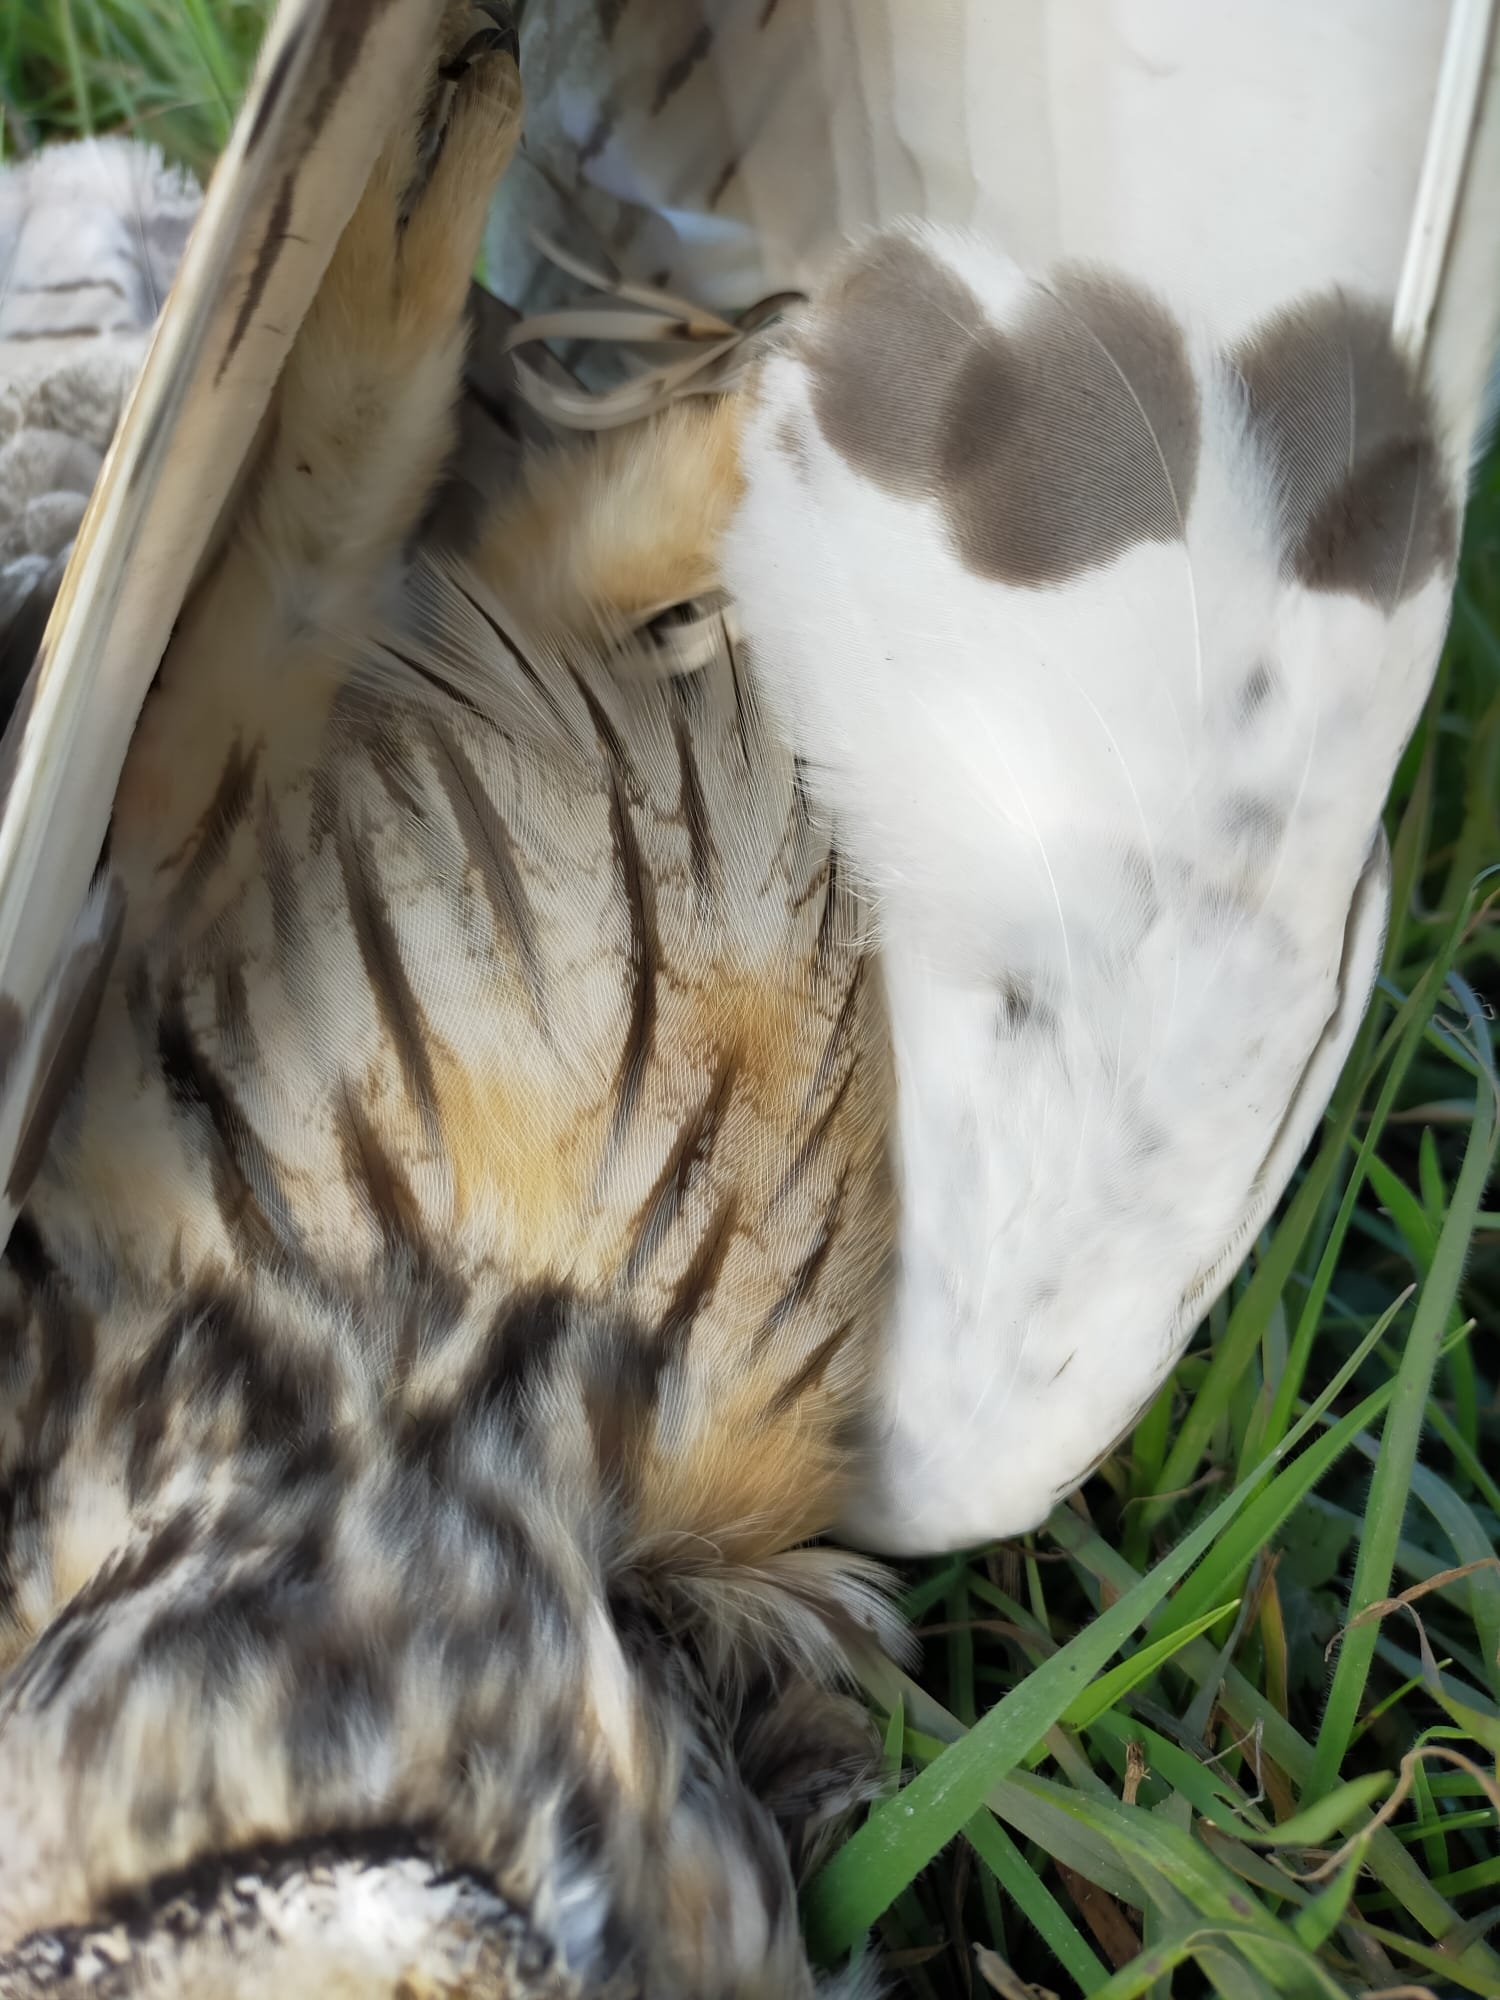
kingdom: Animalia
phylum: Chordata
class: Aves
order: Strigiformes
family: Strigidae
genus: Asio
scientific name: Asio otus
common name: Long-eared owl
